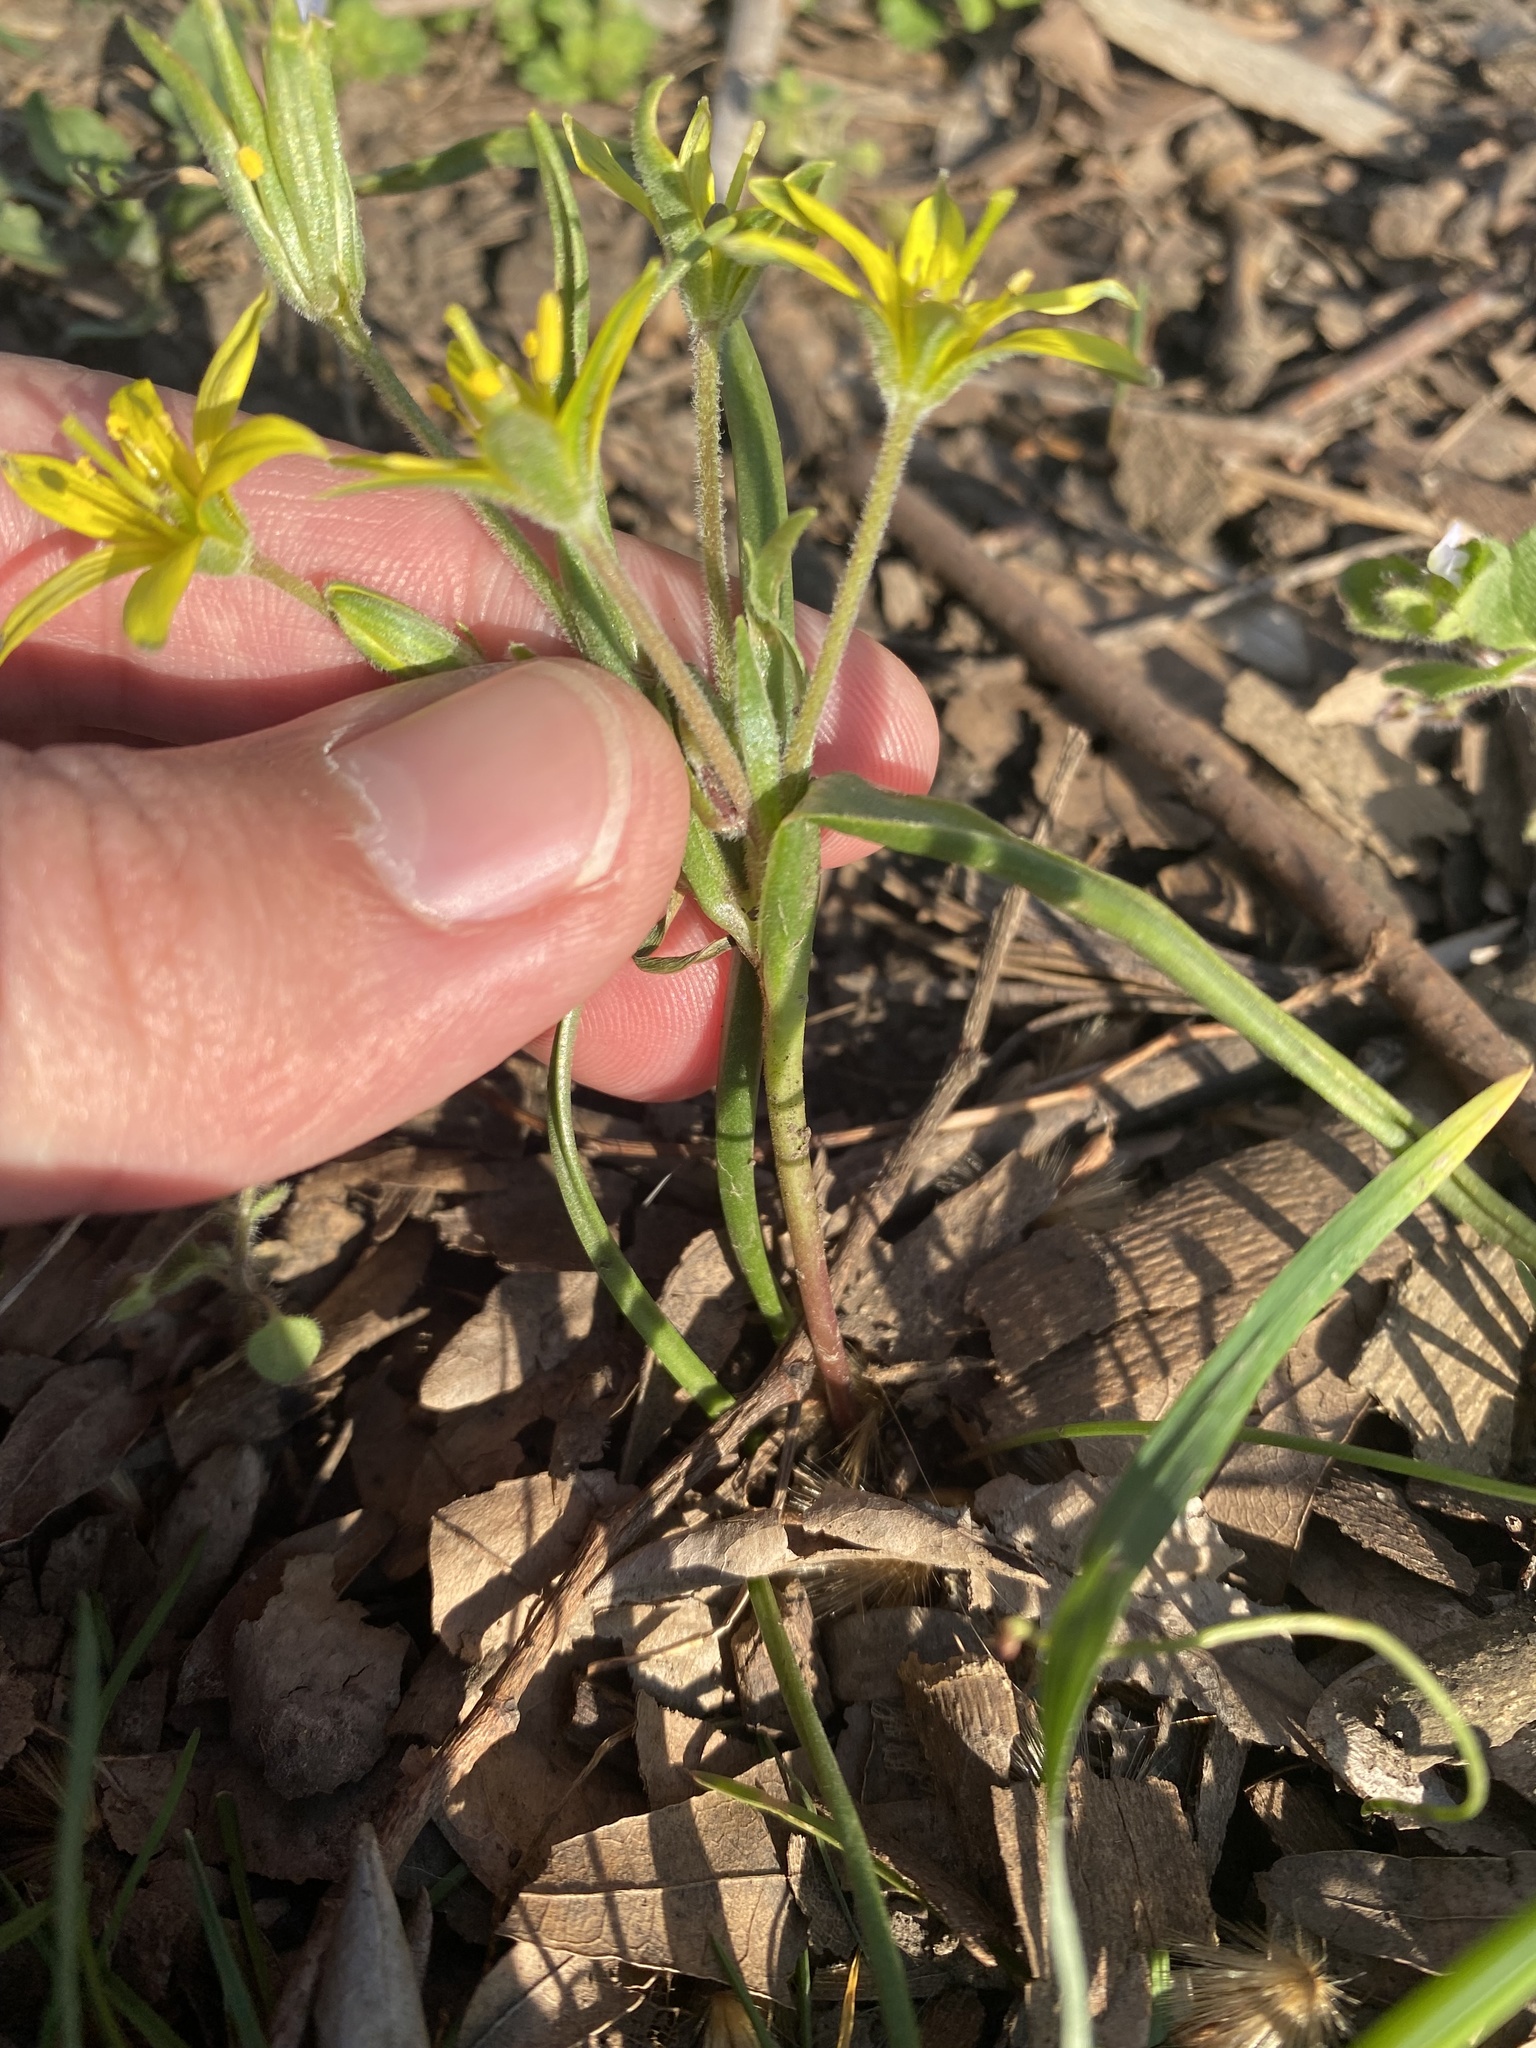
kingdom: Plantae
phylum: Tracheophyta
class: Liliopsida
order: Liliales
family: Liliaceae
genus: Gagea
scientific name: Gagea villosa
